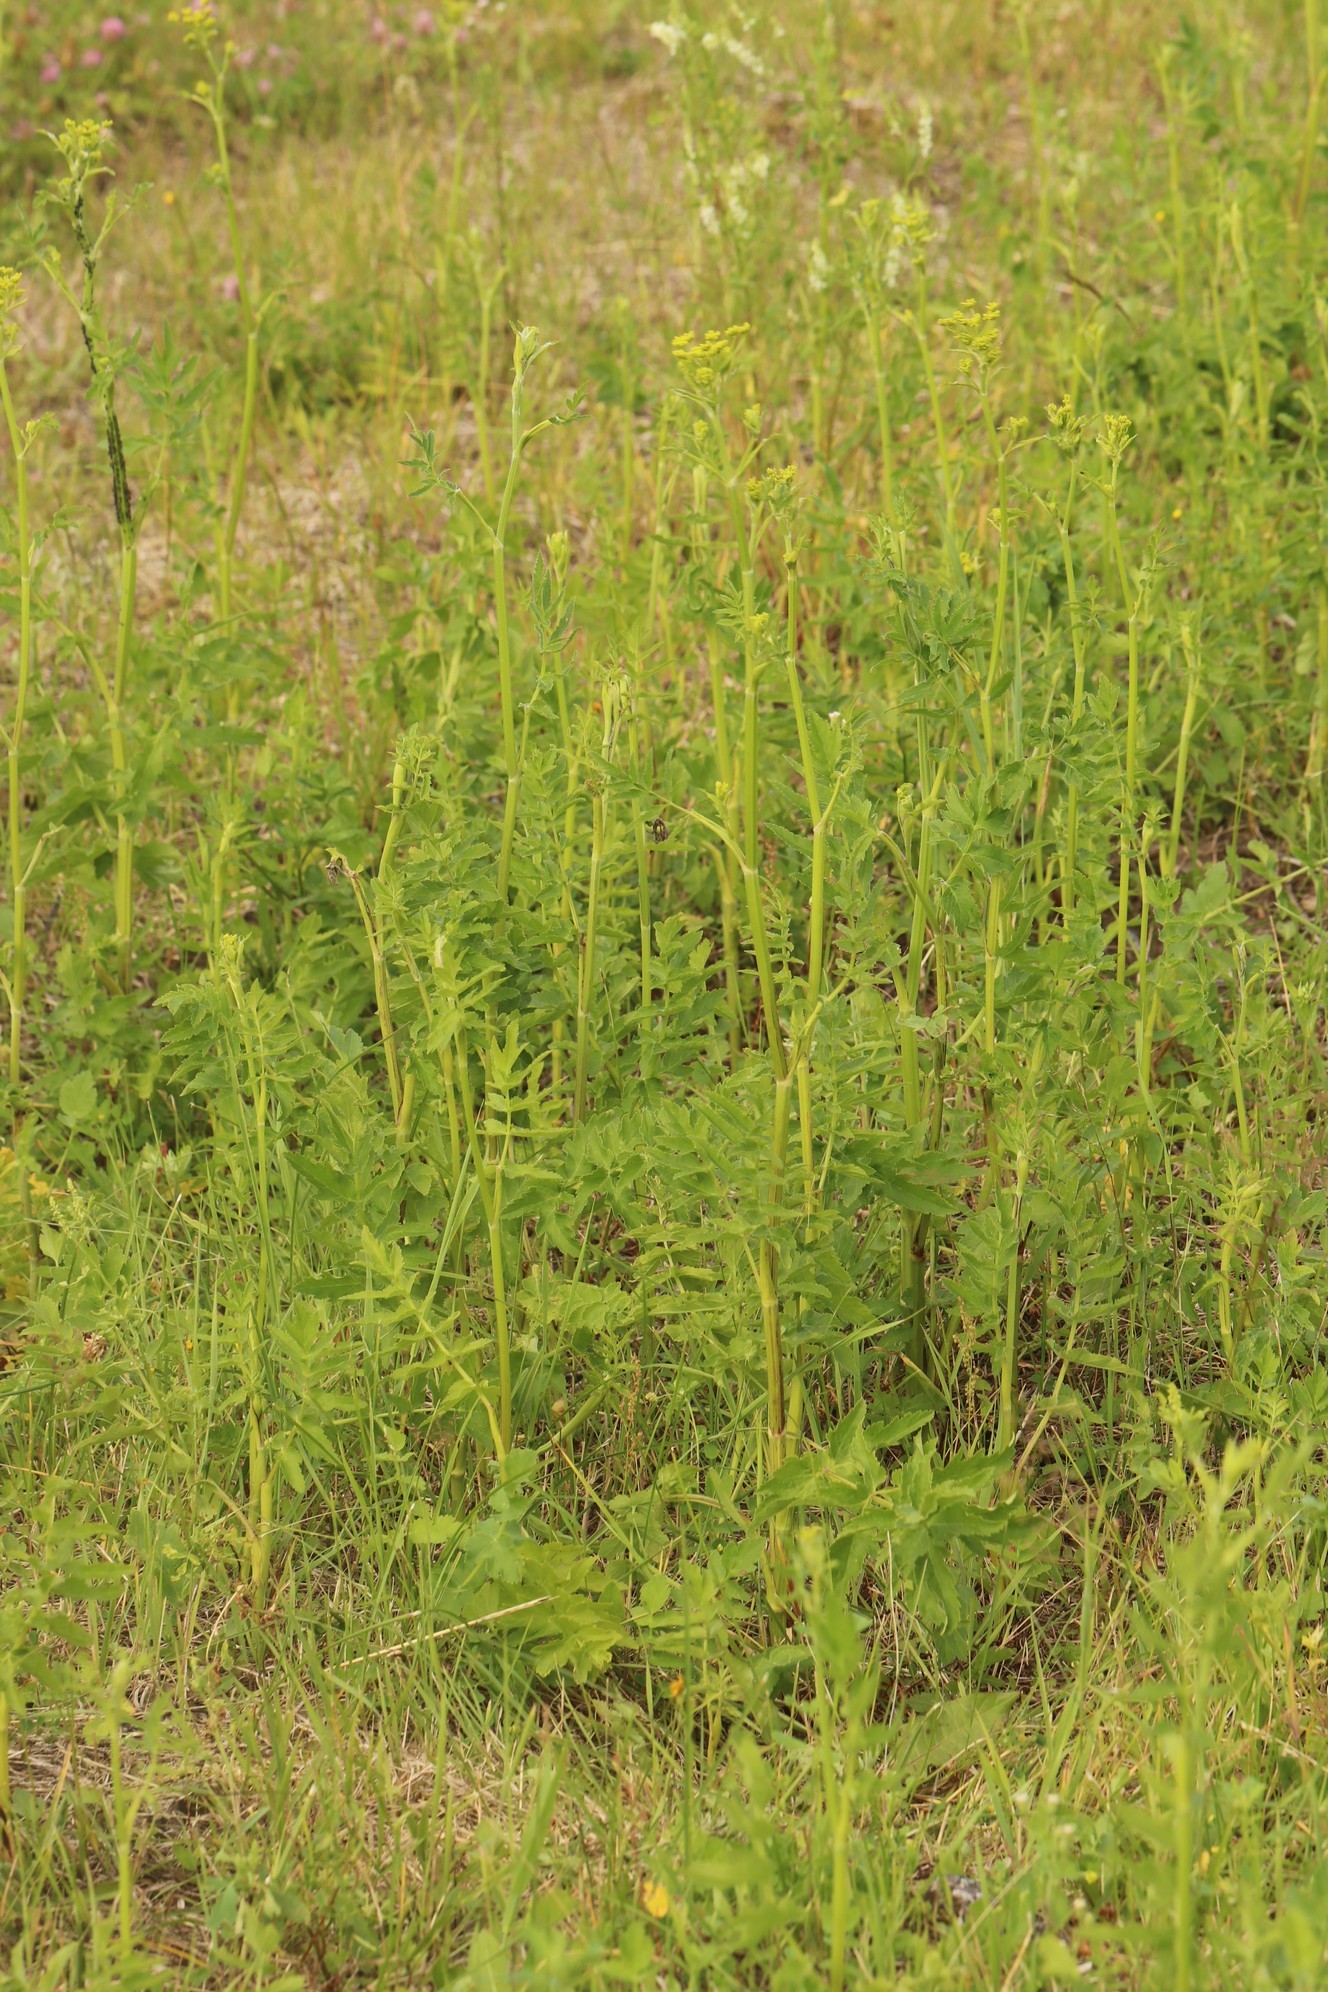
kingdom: Plantae
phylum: Tracheophyta
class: Magnoliopsida
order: Apiales
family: Apiaceae
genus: Pastinaca
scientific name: Pastinaca sativa
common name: Wild parsnip
